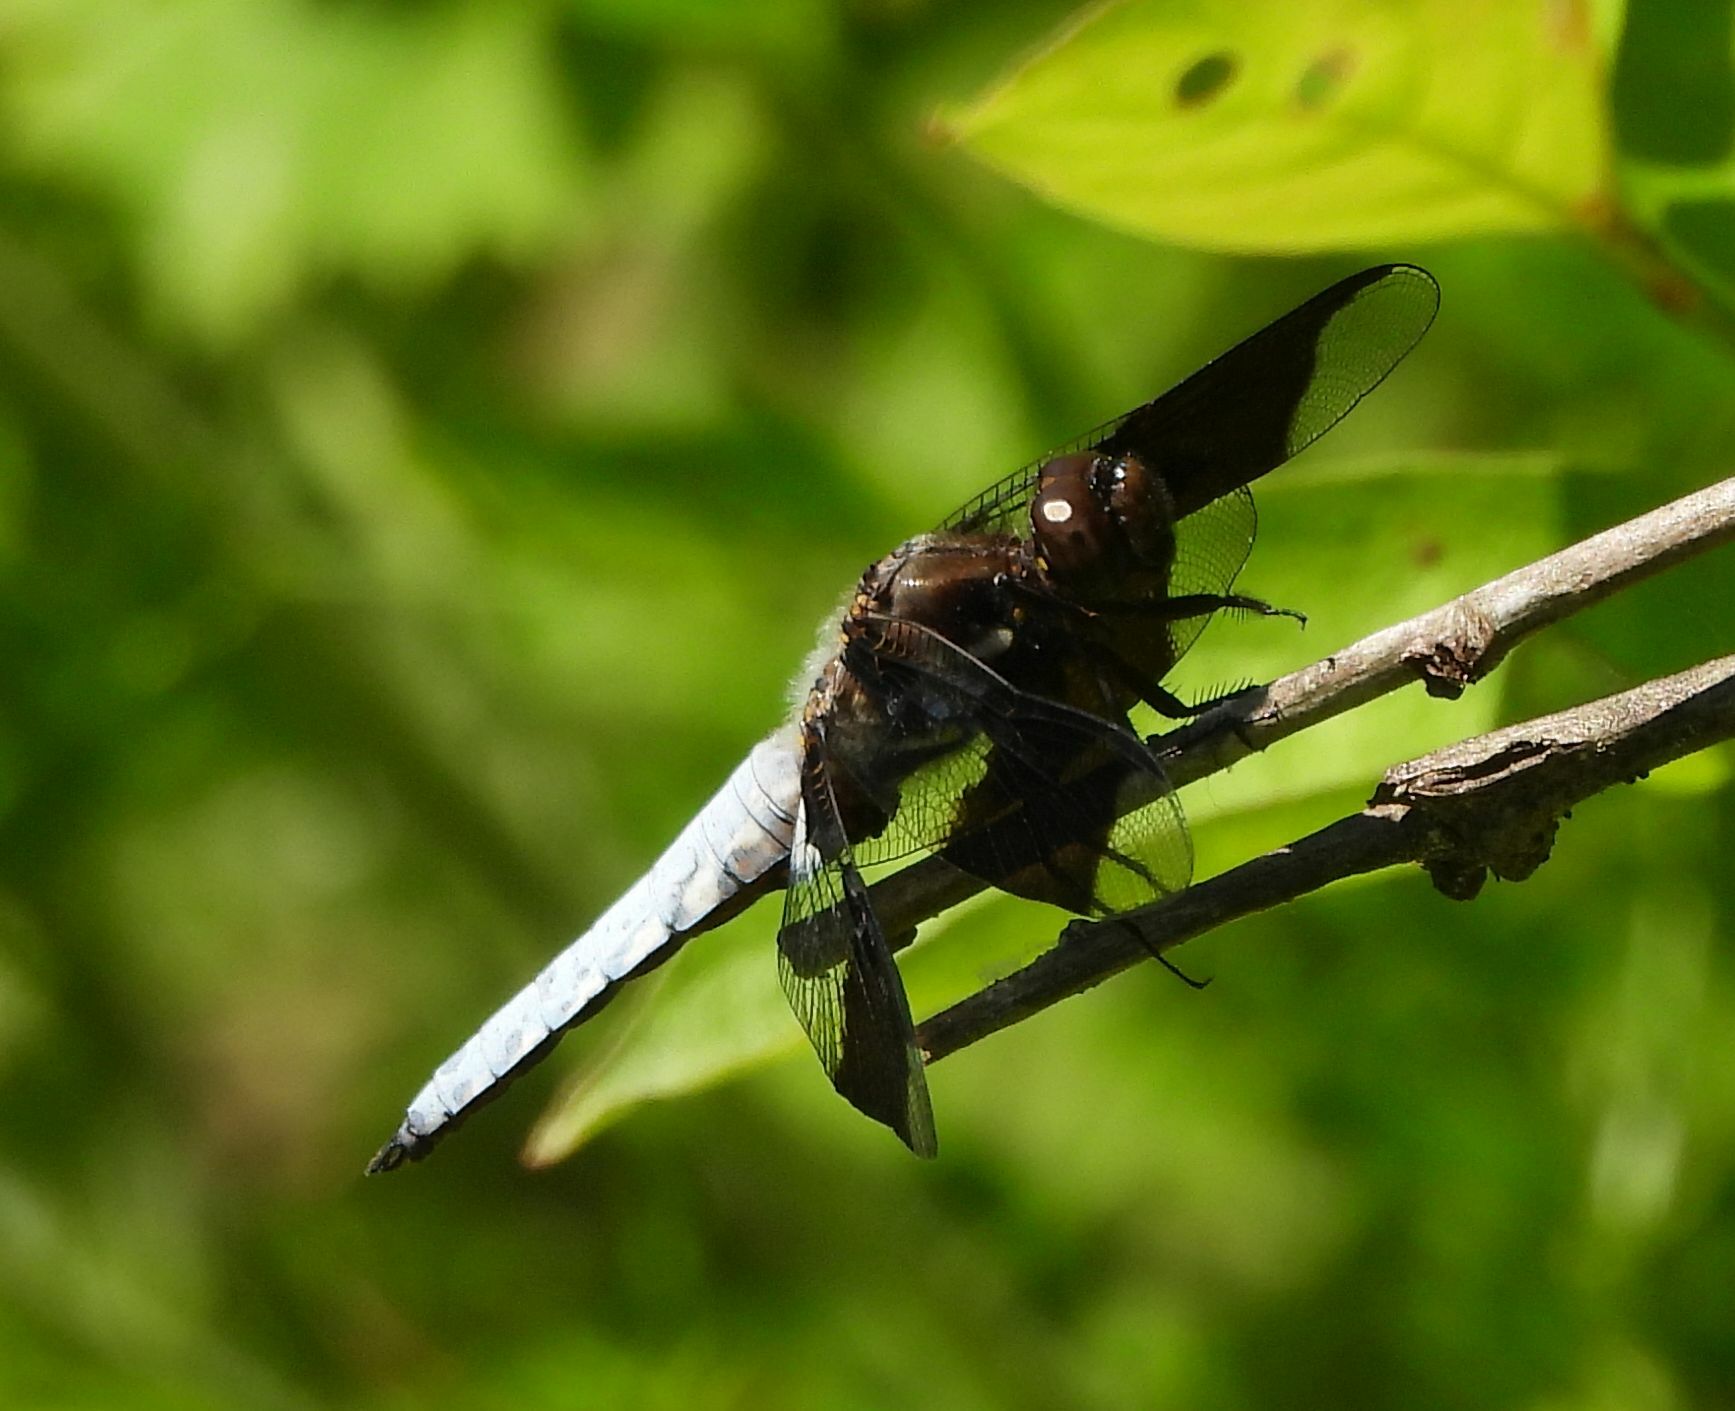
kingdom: Animalia
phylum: Arthropoda
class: Insecta
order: Odonata
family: Libellulidae
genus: Plathemis
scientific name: Plathemis lydia
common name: Common whitetail
